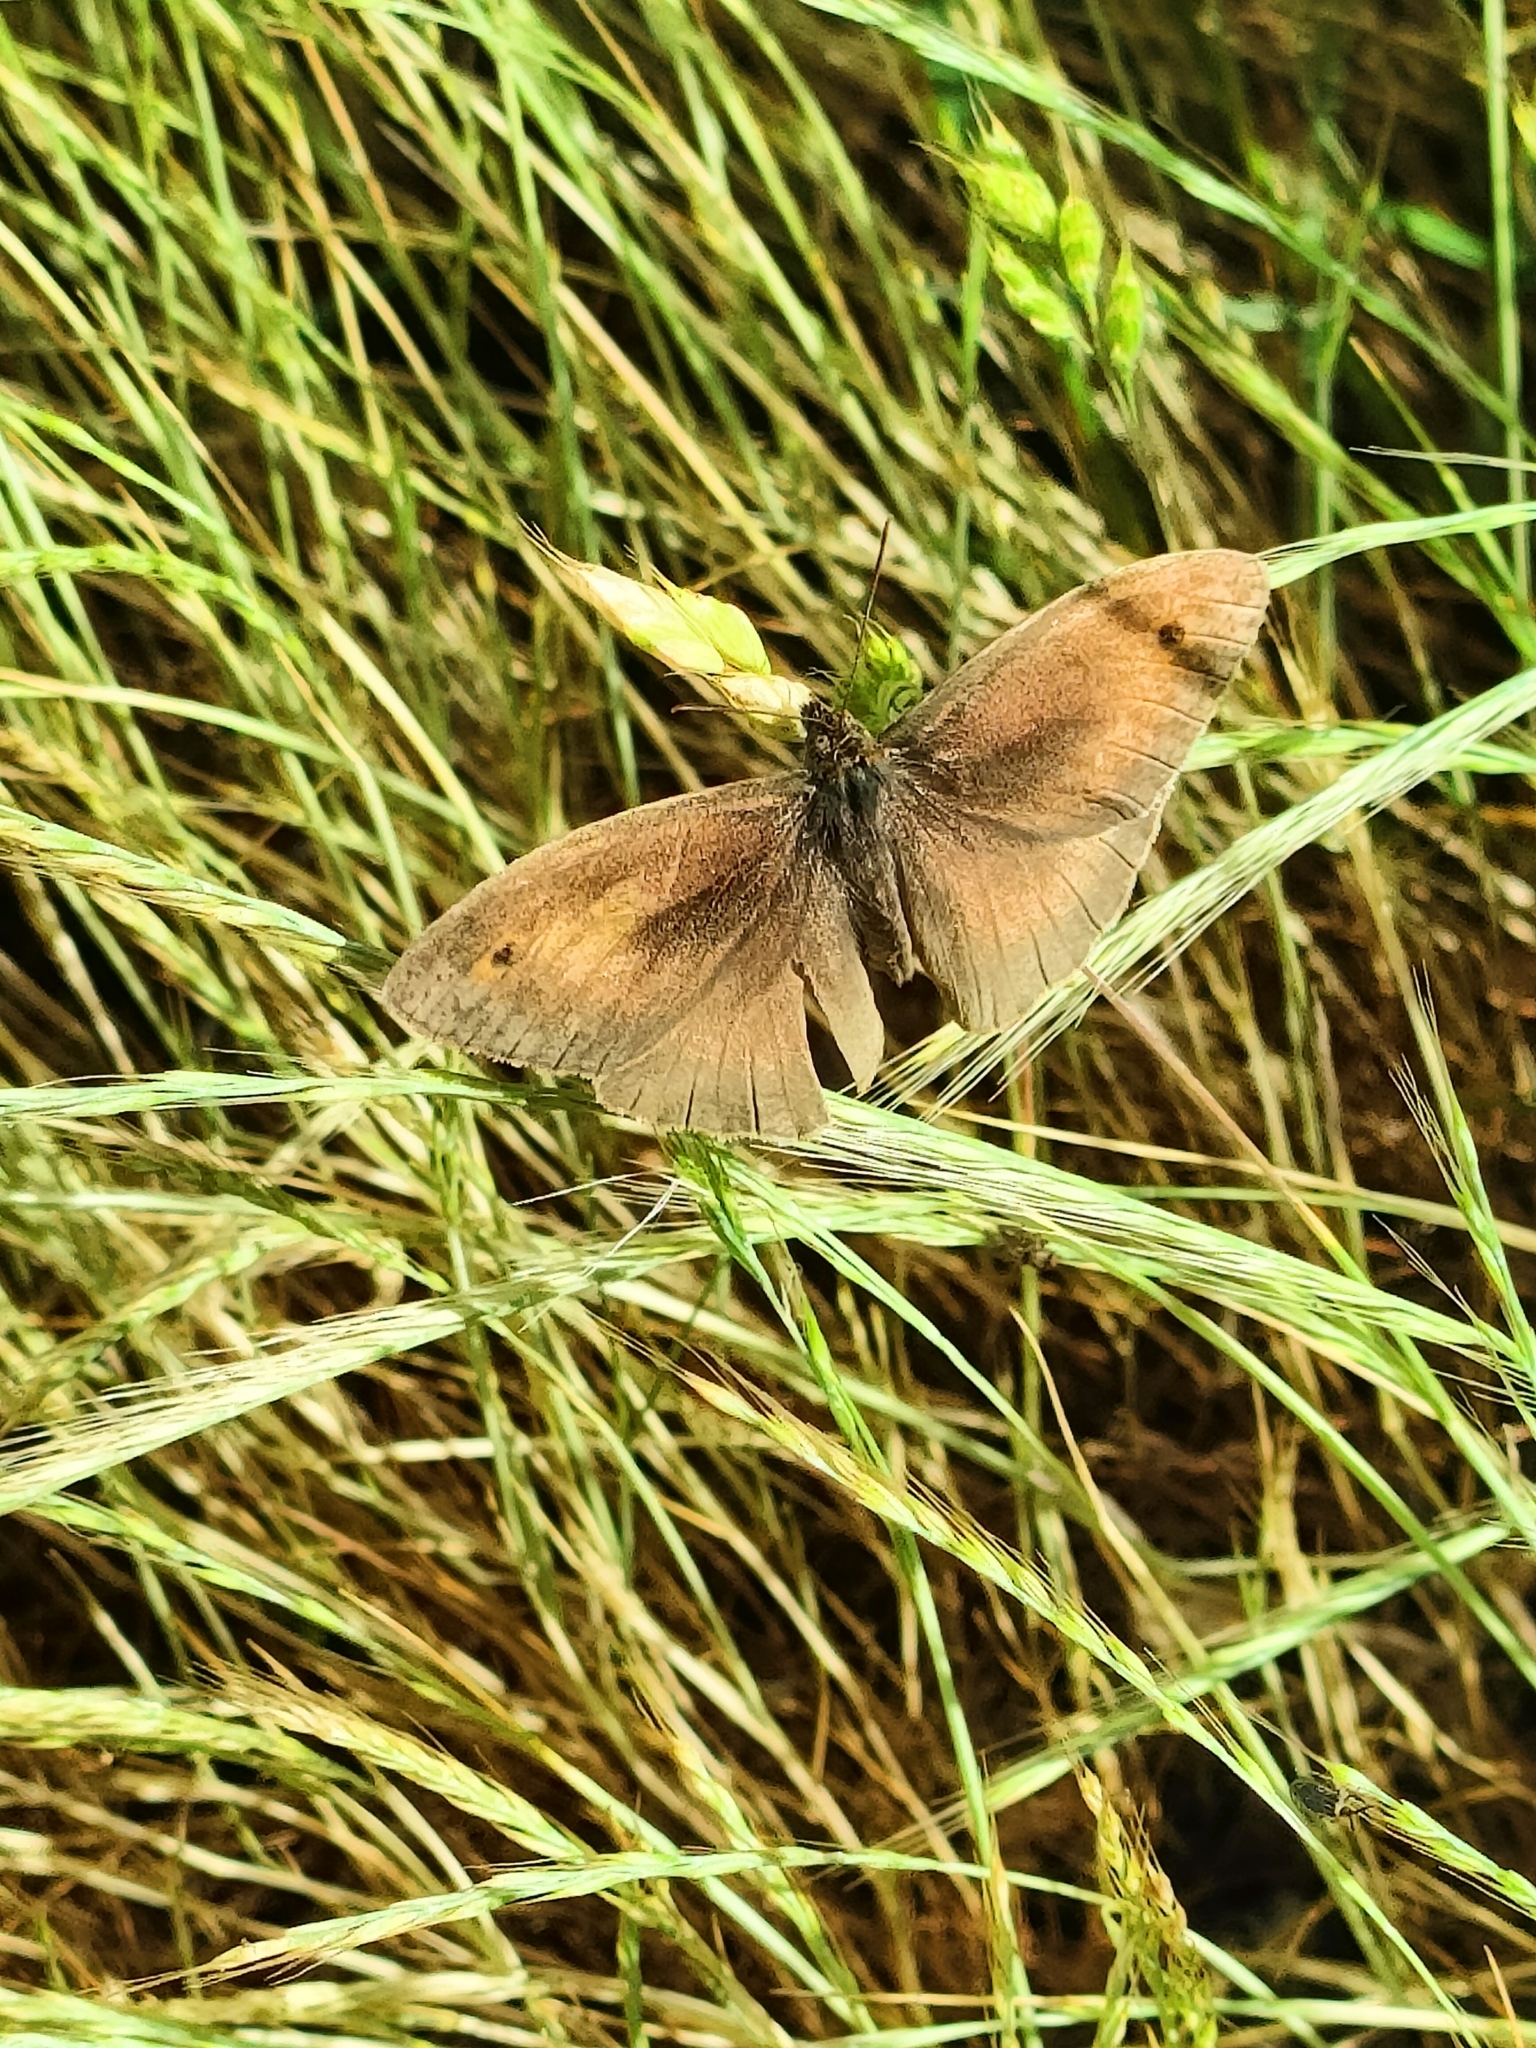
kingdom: Animalia
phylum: Arthropoda
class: Insecta
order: Lepidoptera
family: Nymphalidae
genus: Maniola
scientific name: Maniola jurtina
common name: Meadow brown
